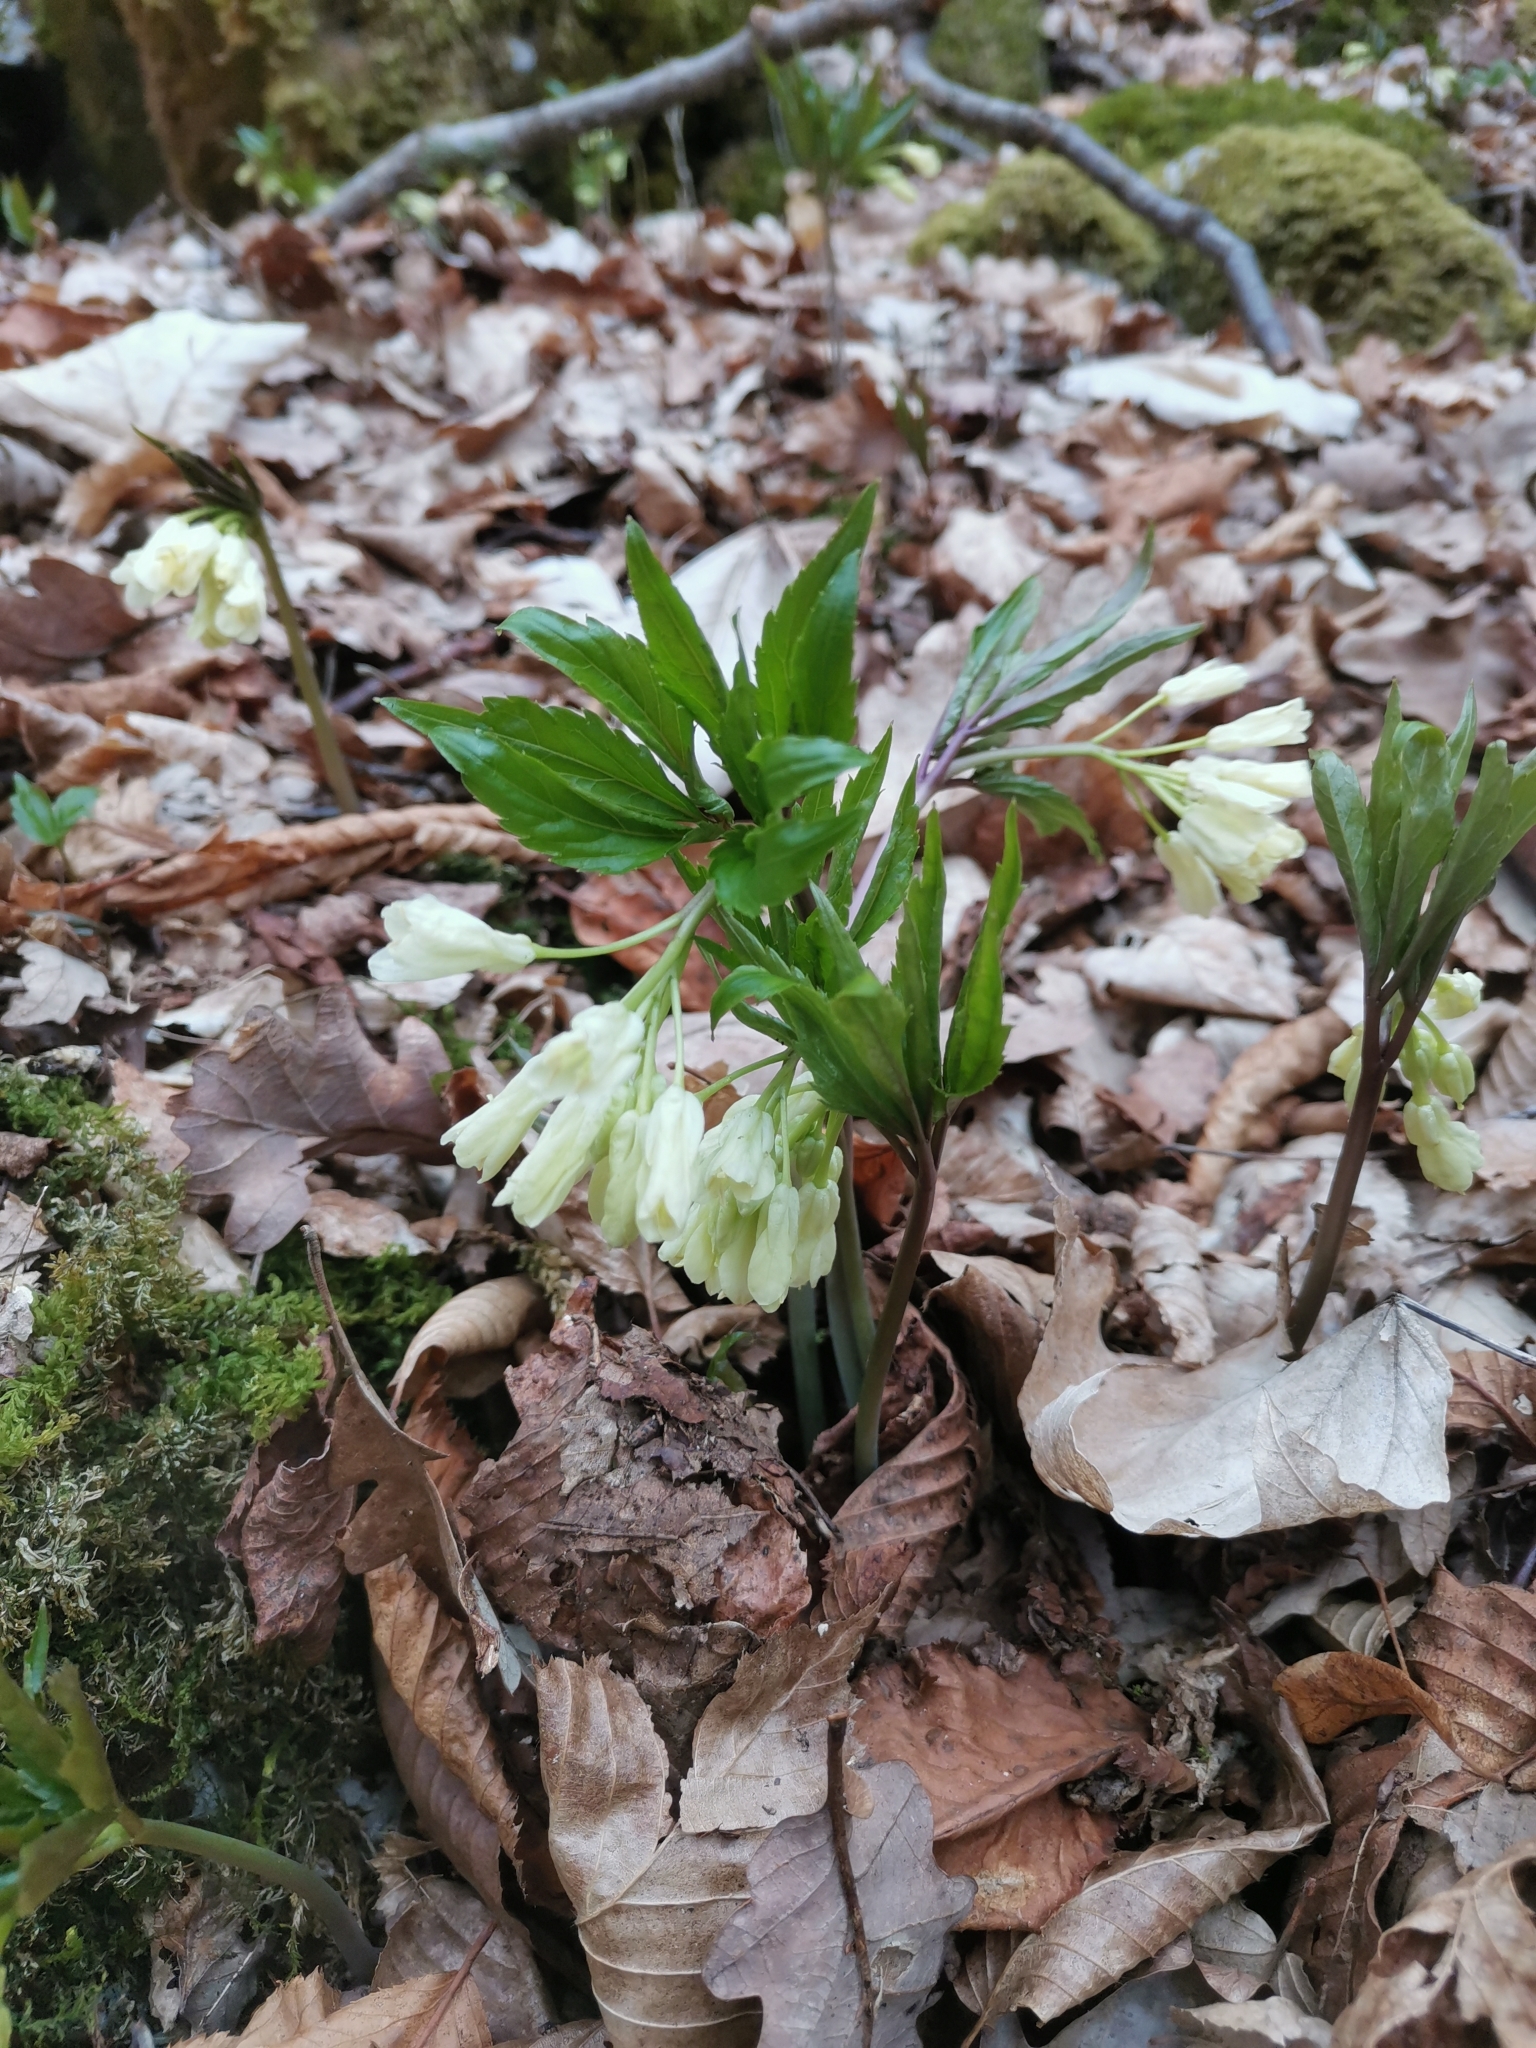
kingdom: Plantae
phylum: Tracheophyta
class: Magnoliopsida
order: Brassicales
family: Brassicaceae
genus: Cardamine
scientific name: Cardamine enneaphyllos
